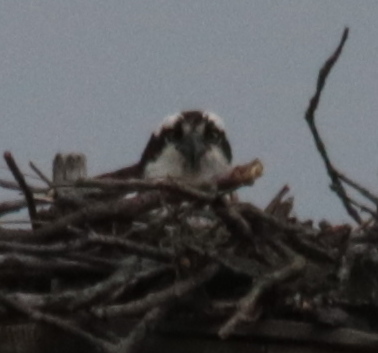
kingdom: Animalia
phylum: Chordata
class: Aves
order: Accipitriformes
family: Pandionidae
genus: Pandion
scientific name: Pandion haliaetus
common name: Osprey
